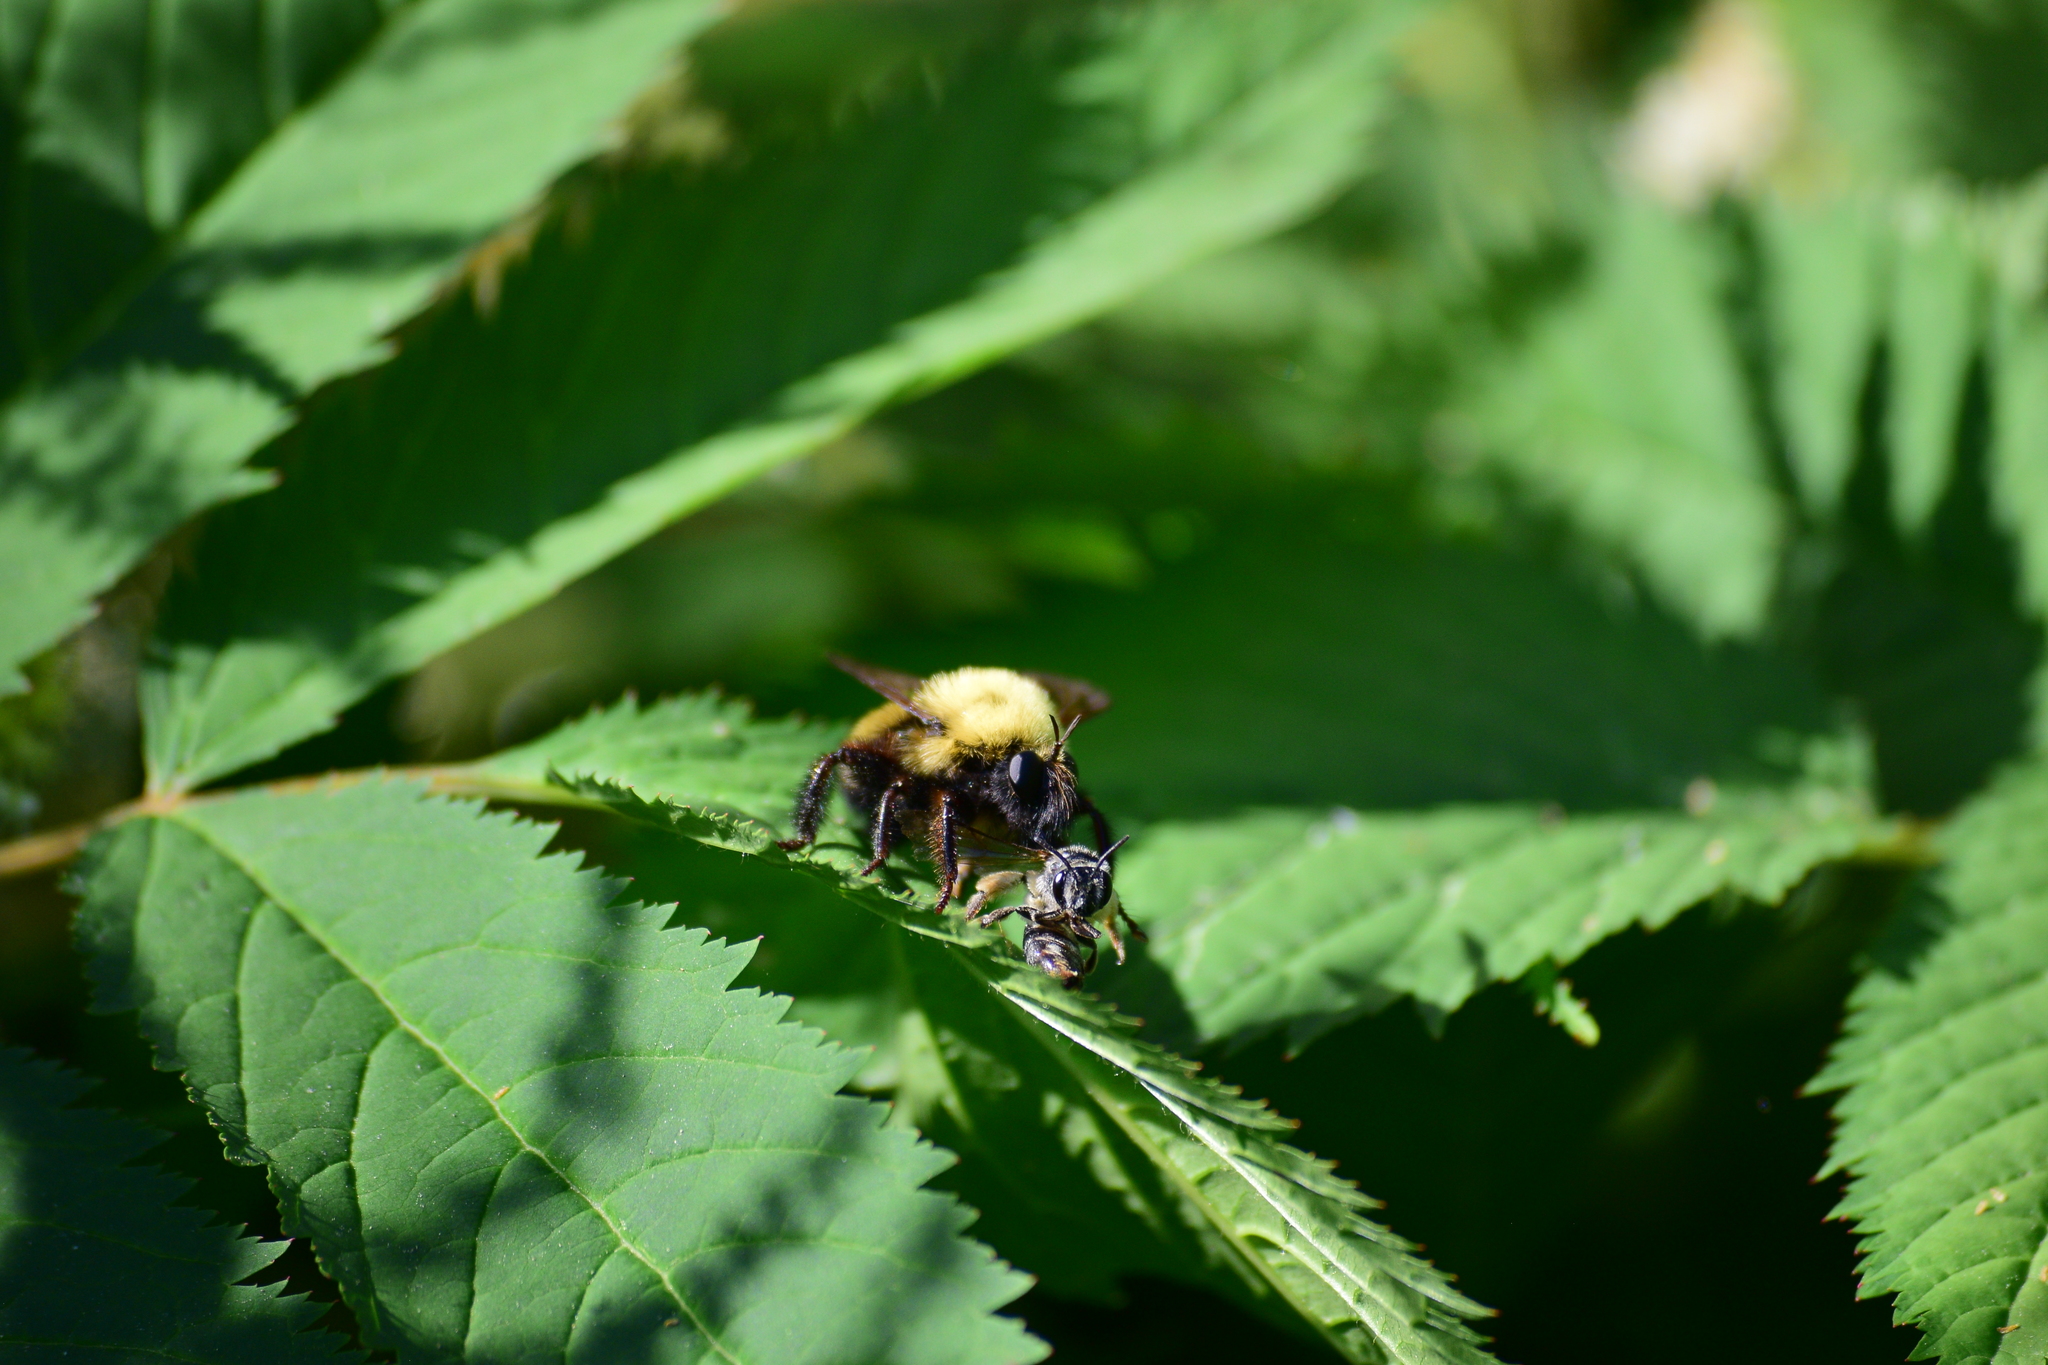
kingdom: Animalia
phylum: Arthropoda
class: Insecta
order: Diptera
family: Asilidae
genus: Laphria
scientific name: Laphria thoracica
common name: Bumble bee mimic robber fly
